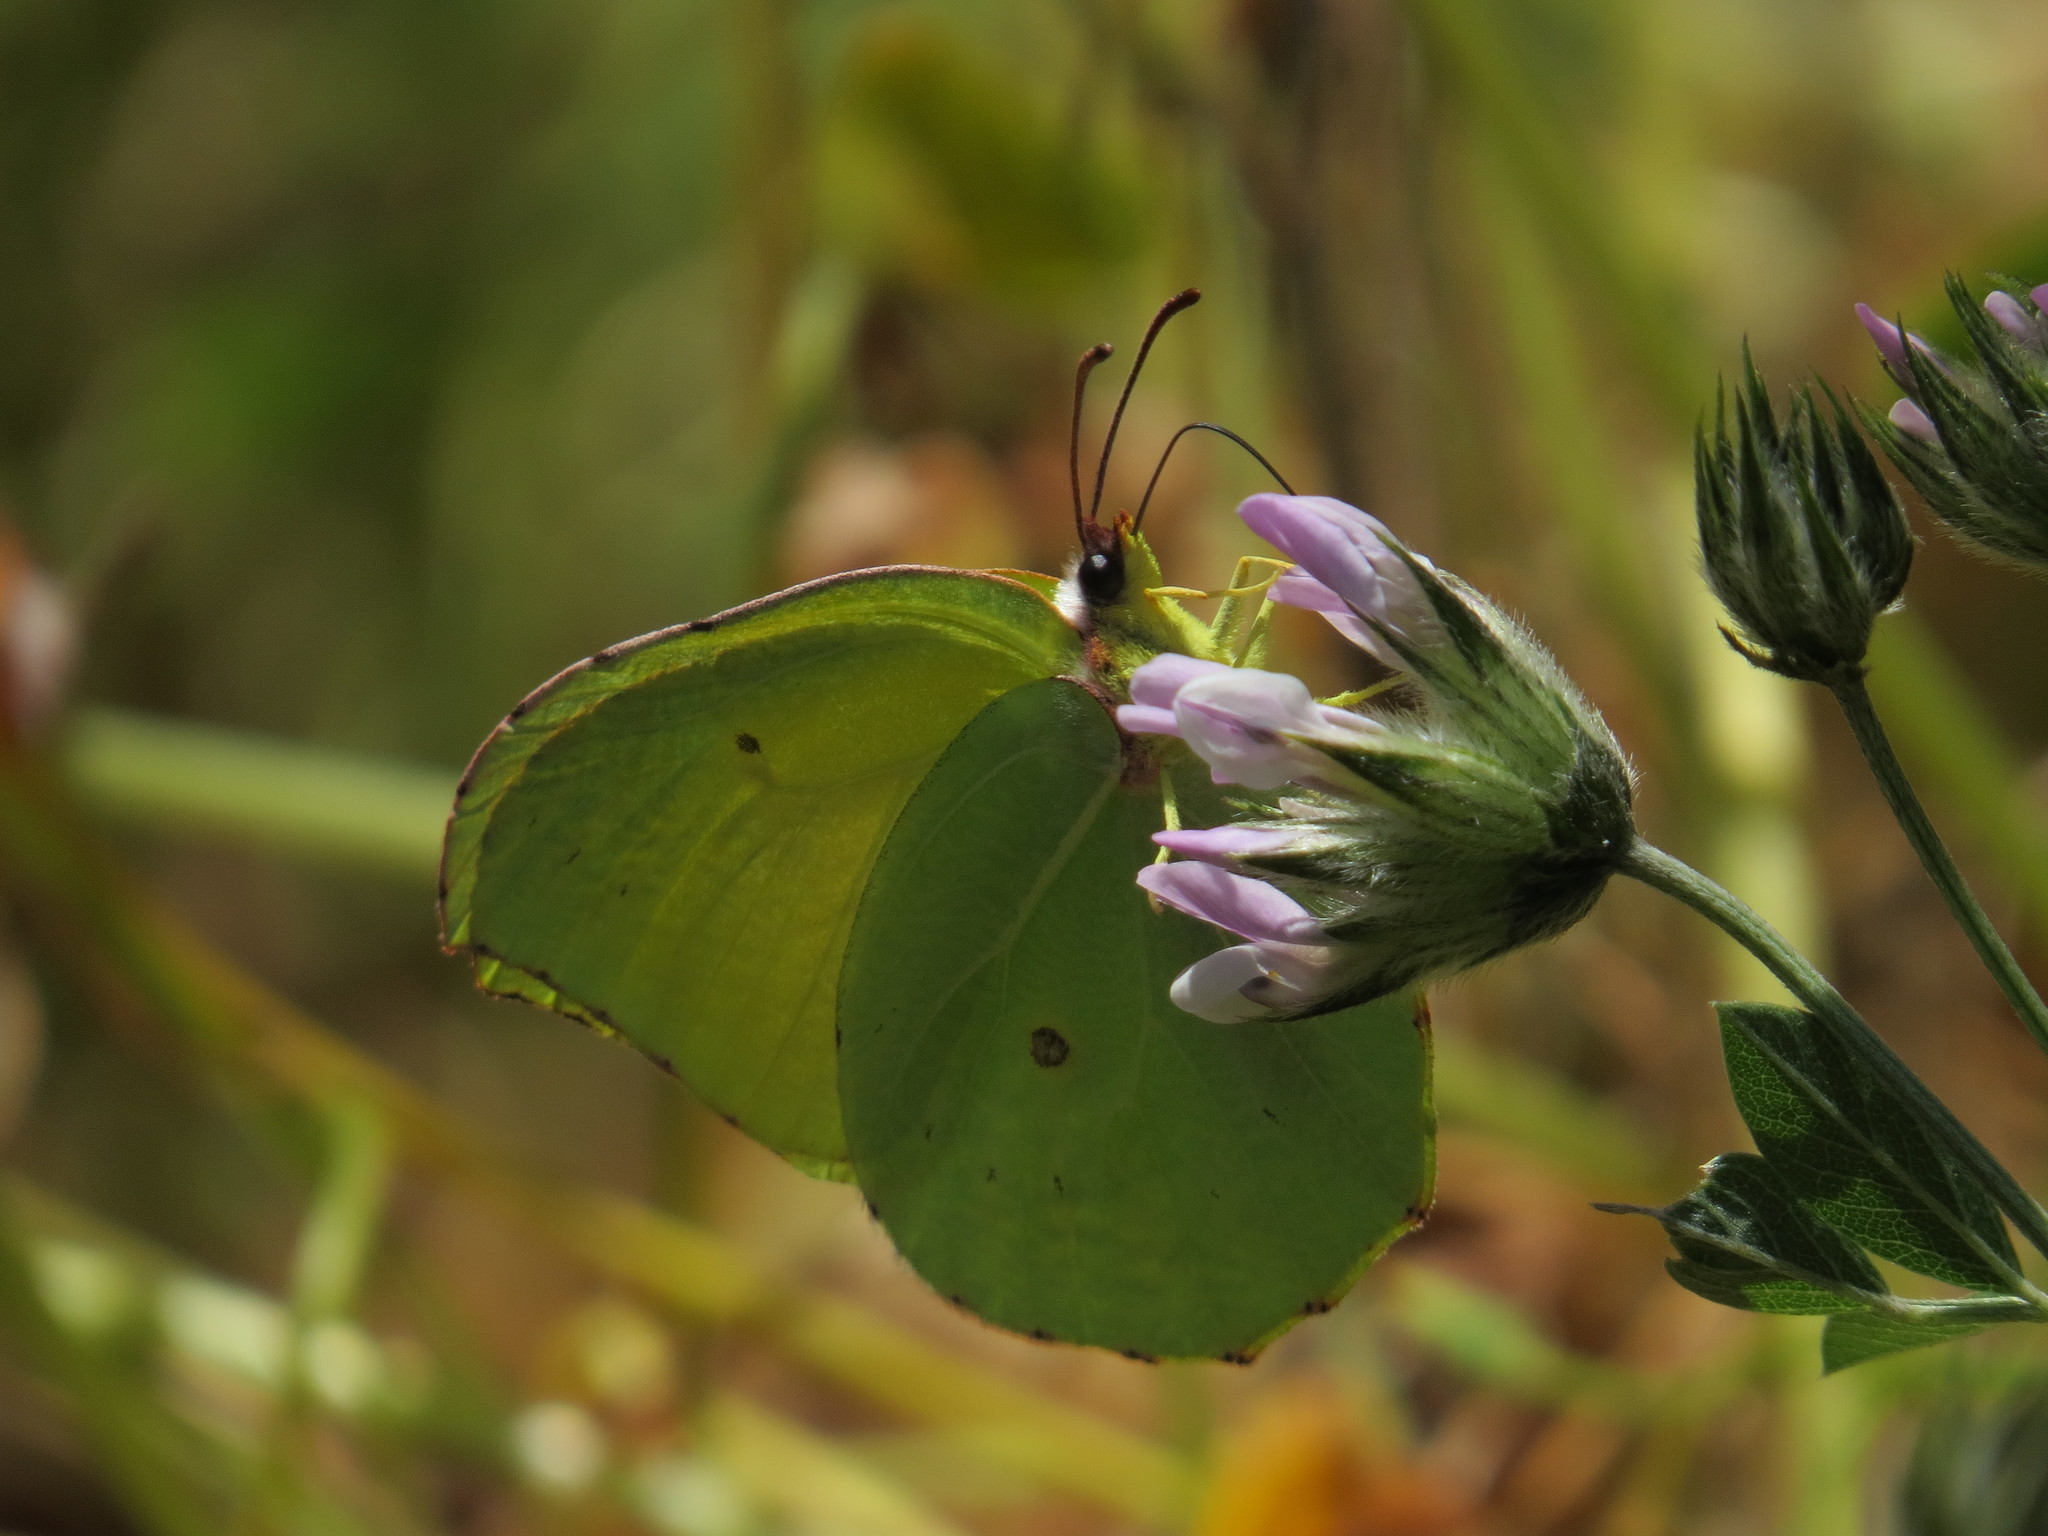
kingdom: Animalia
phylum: Arthropoda
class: Insecta
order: Lepidoptera
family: Pieridae
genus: Gonepteryx
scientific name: Gonepteryx cleobule
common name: Canary brimstone
